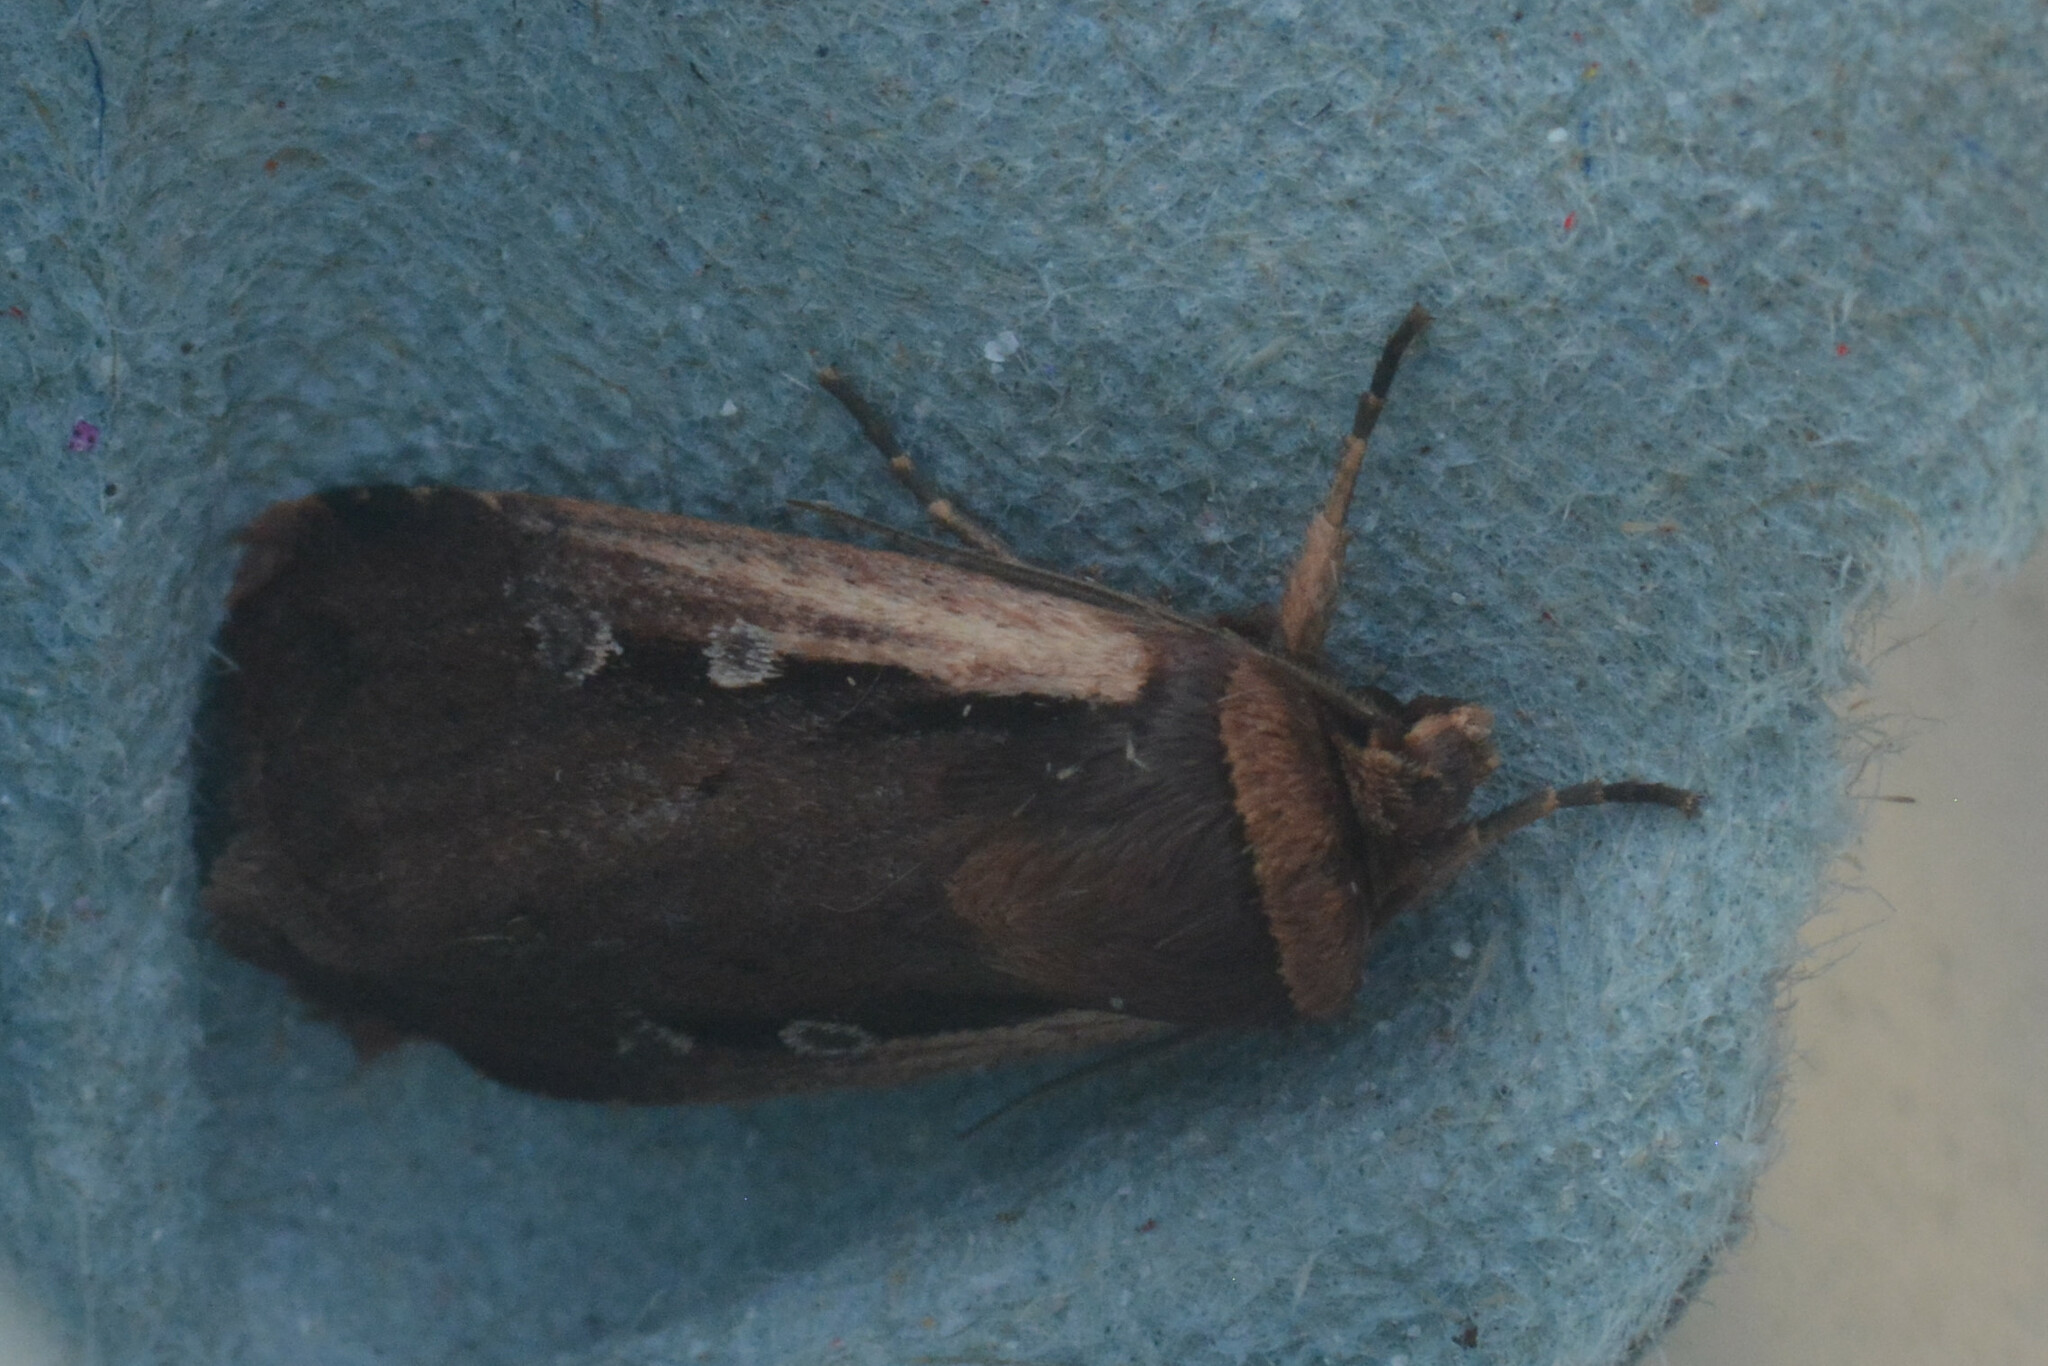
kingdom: Animalia
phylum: Arthropoda
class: Insecta
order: Lepidoptera
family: Noctuidae
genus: Ochropleura
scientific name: Ochropleura plecta
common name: Flame shoulder
